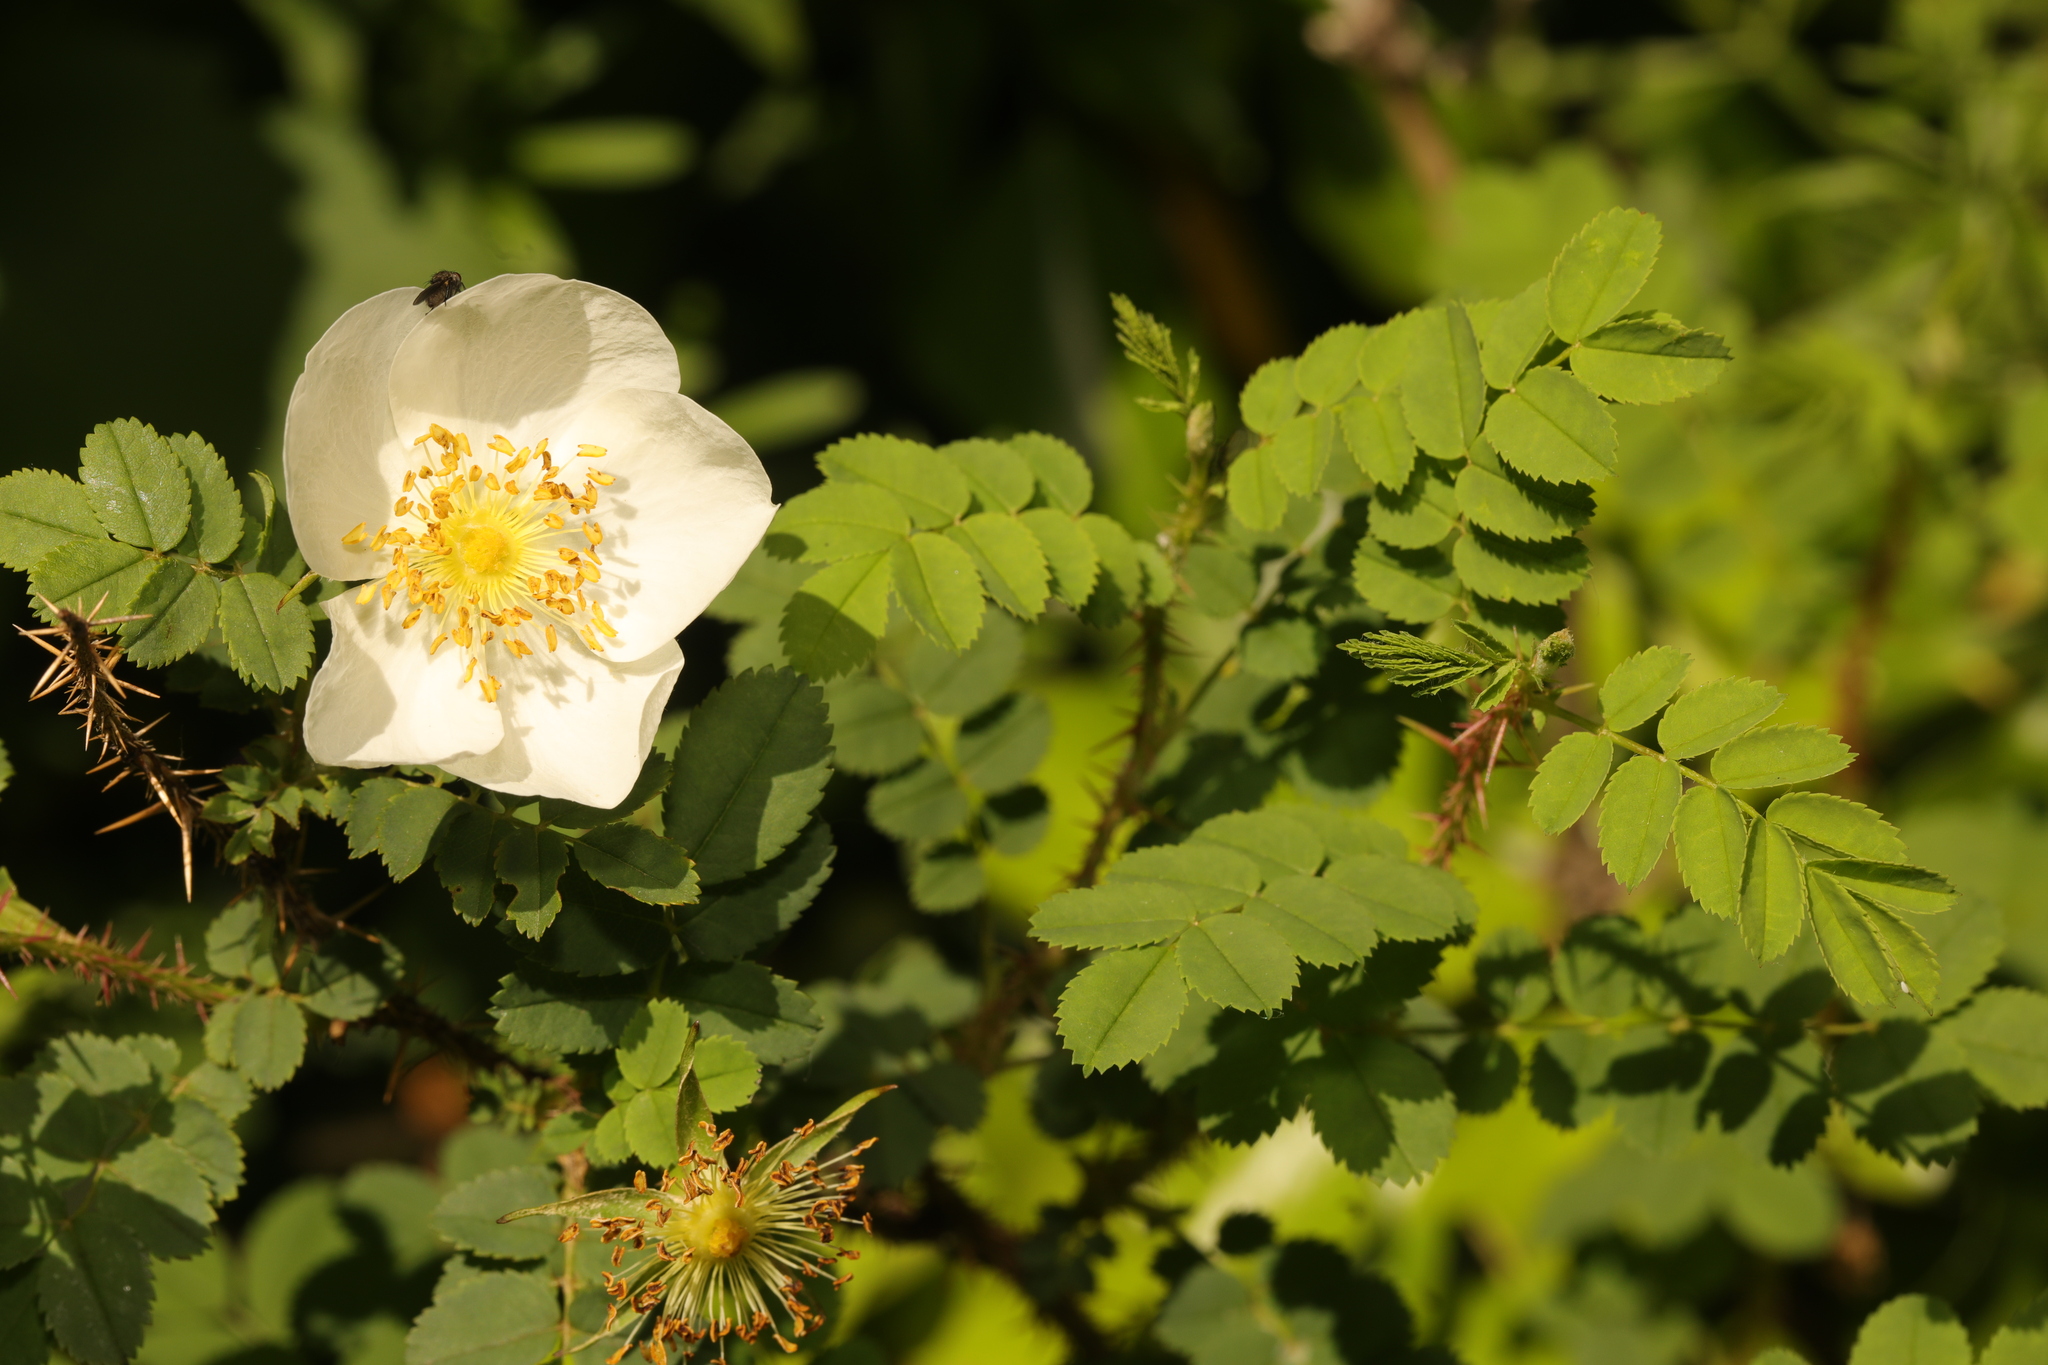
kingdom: Plantae
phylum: Tracheophyta
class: Magnoliopsida
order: Rosales
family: Rosaceae
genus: Rosa
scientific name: Rosa spinosissima
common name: Burnet rose
